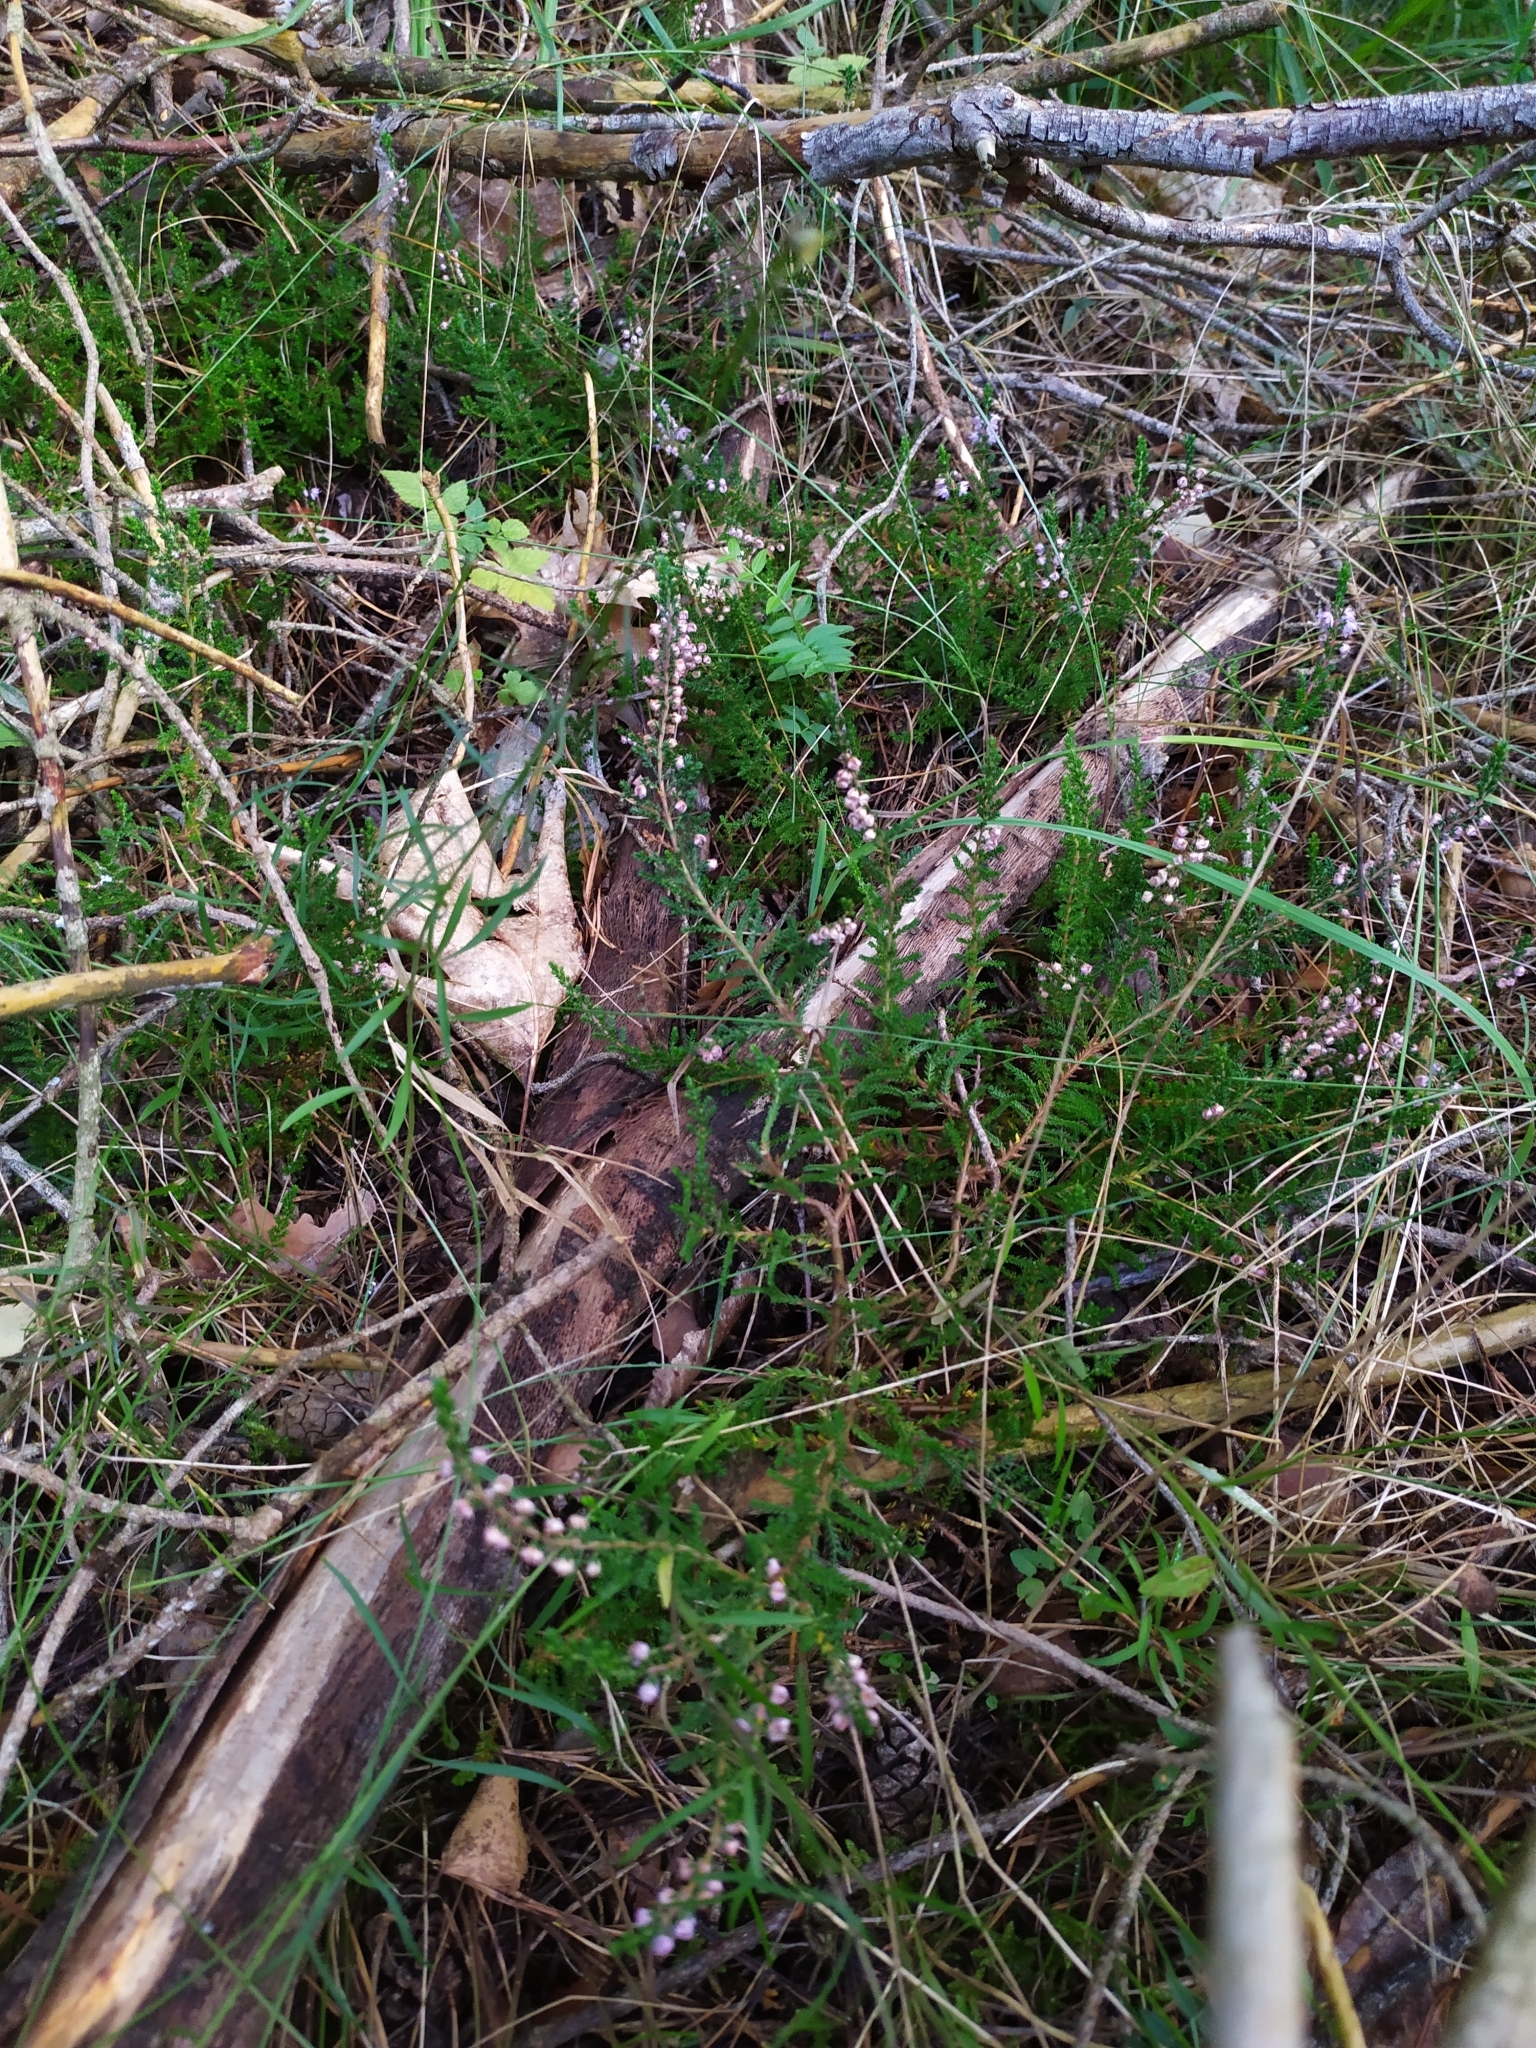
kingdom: Plantae
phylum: Tracheophyta
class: Magnoliopsida
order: Ericales
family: Ericaceae
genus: Calluna
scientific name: Calluna vulgaris
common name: Heather
